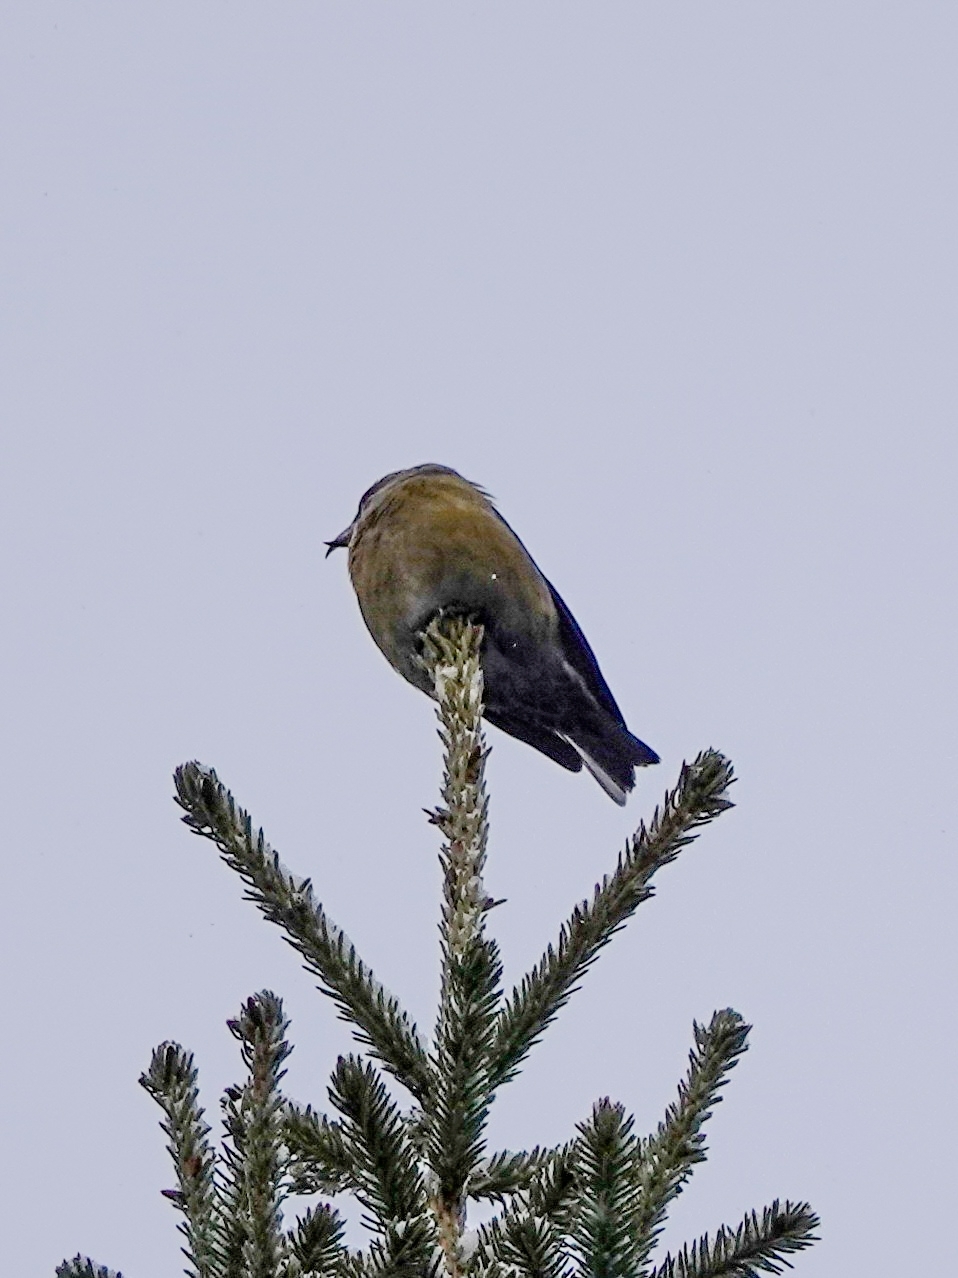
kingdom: Animalia
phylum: Chordata
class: Aves
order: Passeriformes
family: Fringillidae
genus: Loxia
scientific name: Loxia curvirostra
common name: Red crossbill
